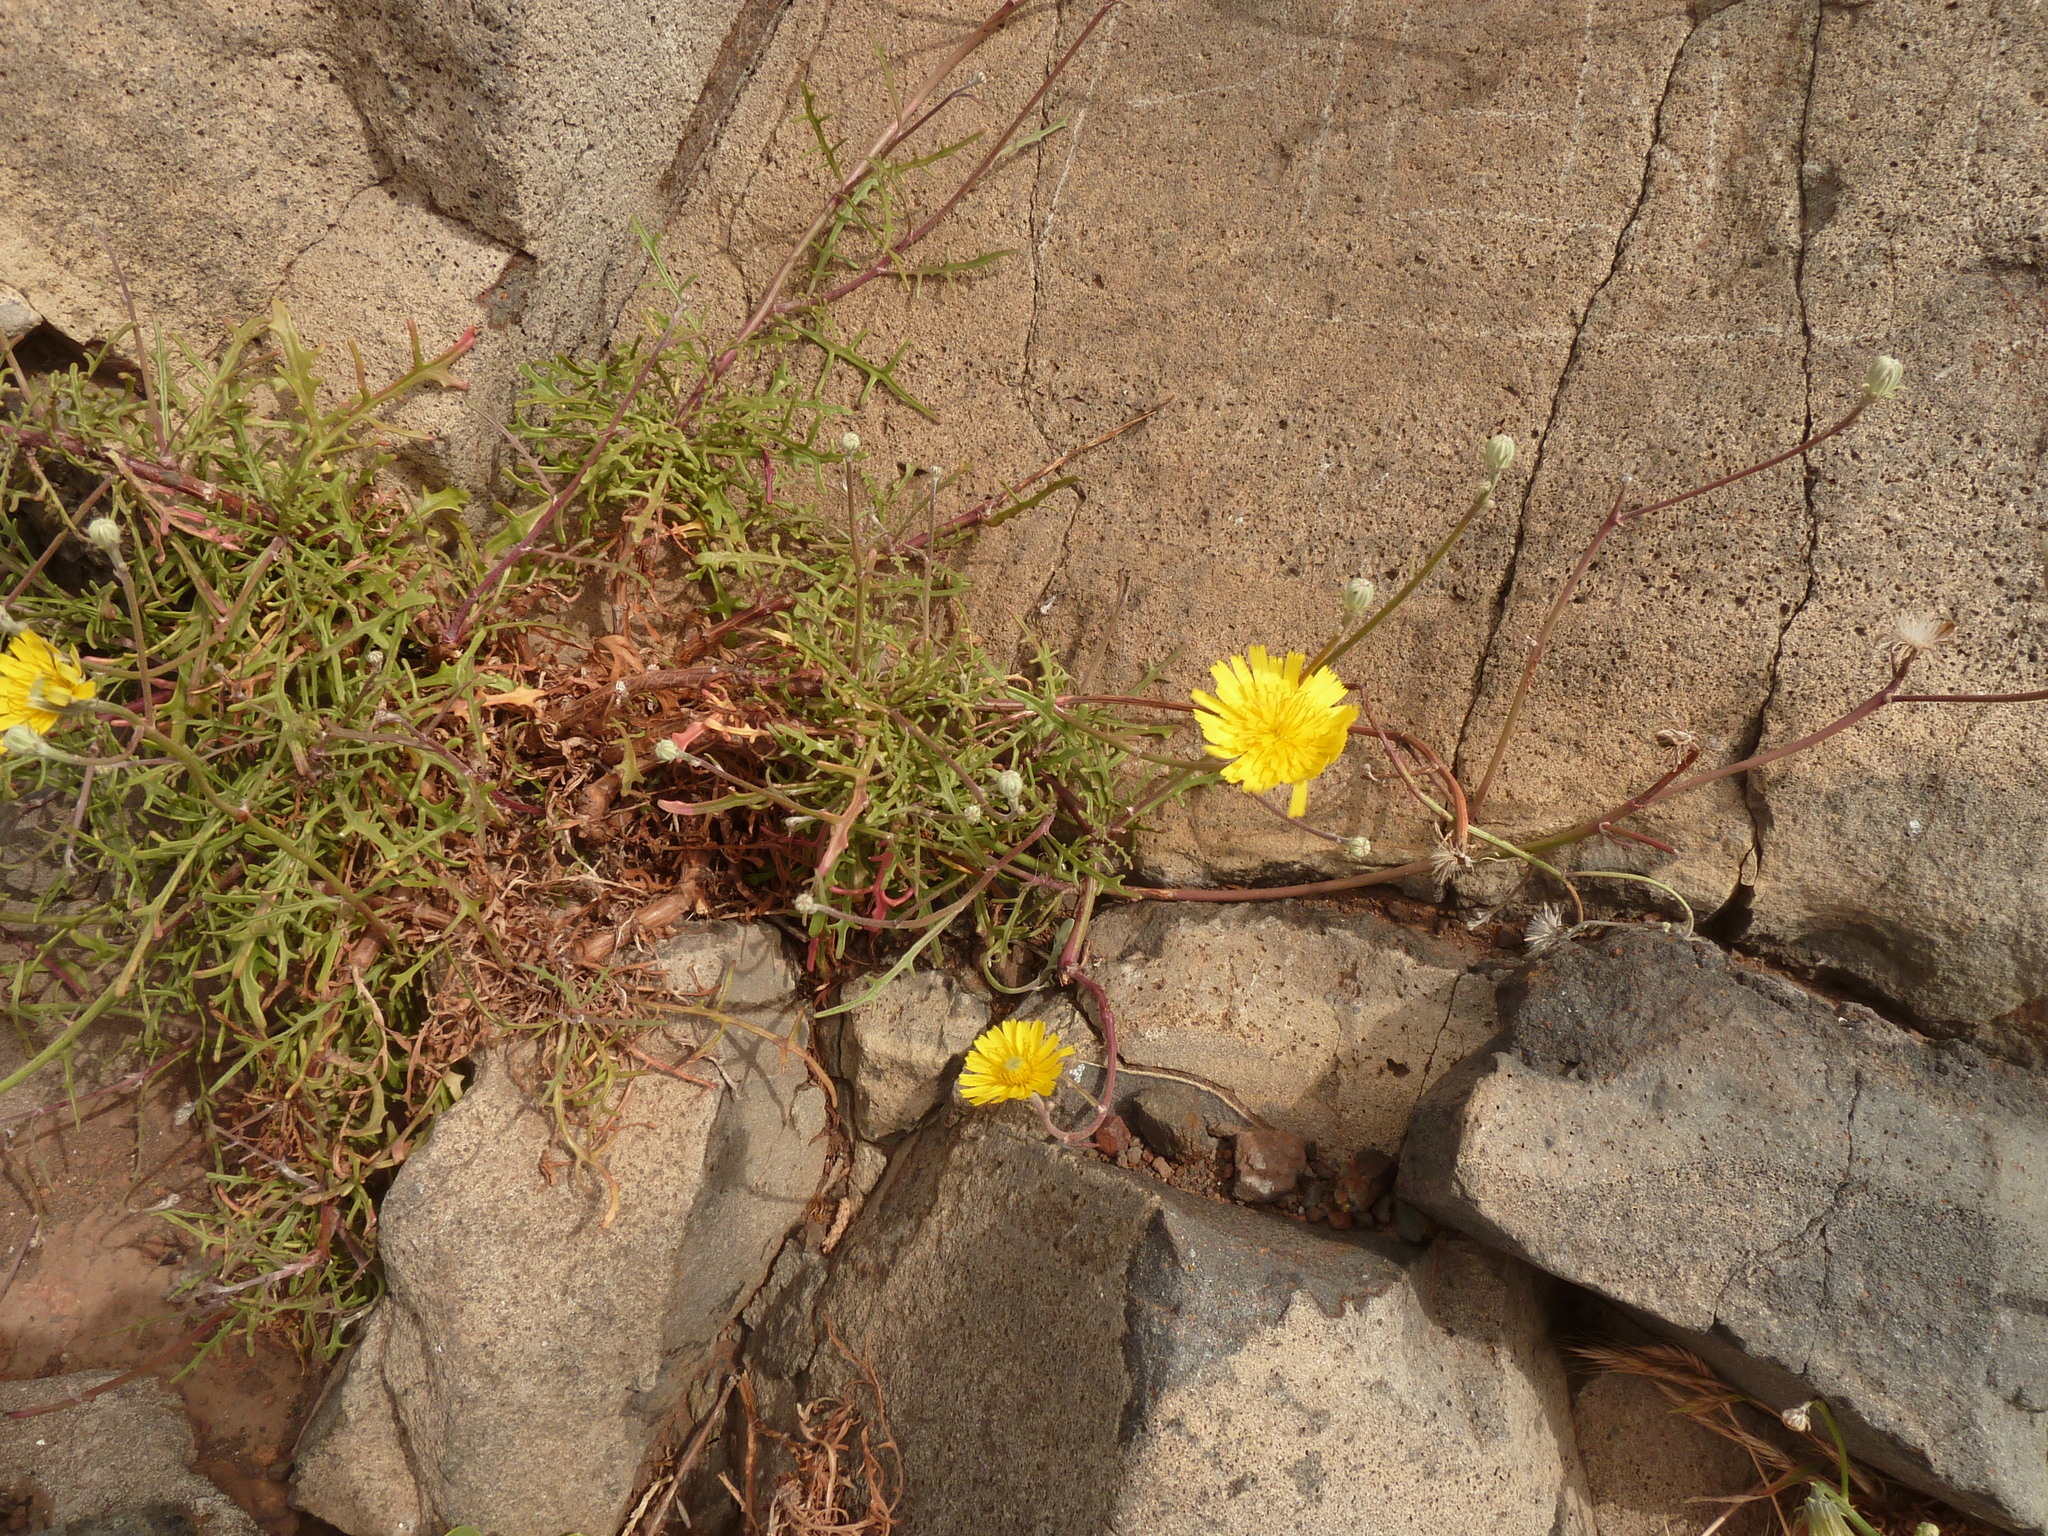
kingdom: Plantae
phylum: Tracheophyta
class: Magnoliopsida
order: Asterales
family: Asteraceae
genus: Tolpis
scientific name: Tolpis succulenta
